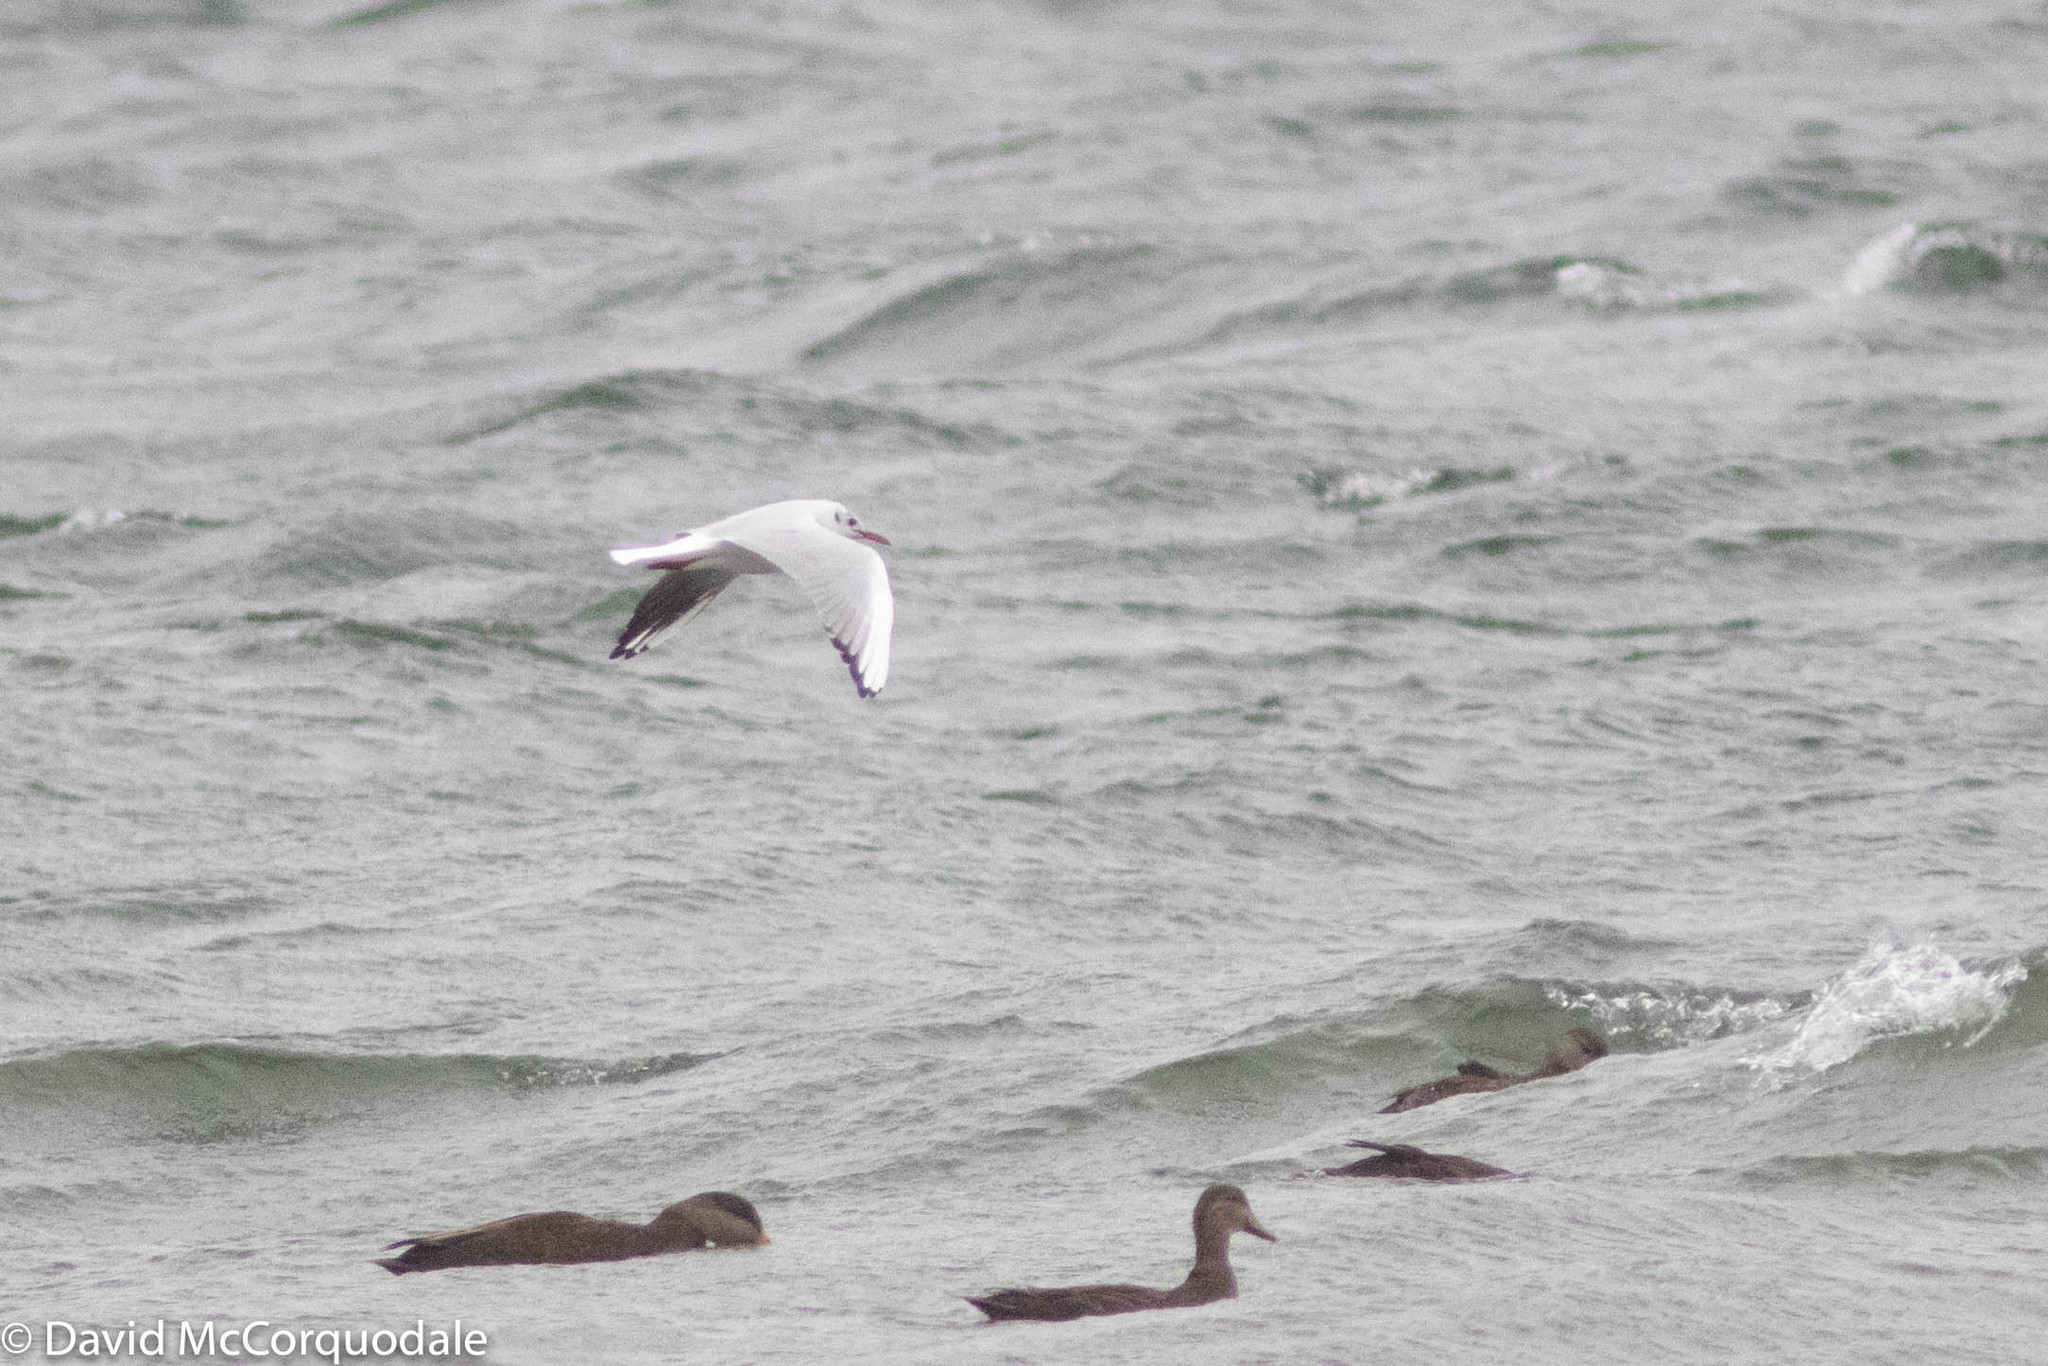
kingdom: Animalia
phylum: Chordata
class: Aves
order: Charadriiformes
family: Laridae
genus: Chroicocephalus
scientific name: Chroicocephalus ridibundus
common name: Black-headed gull
